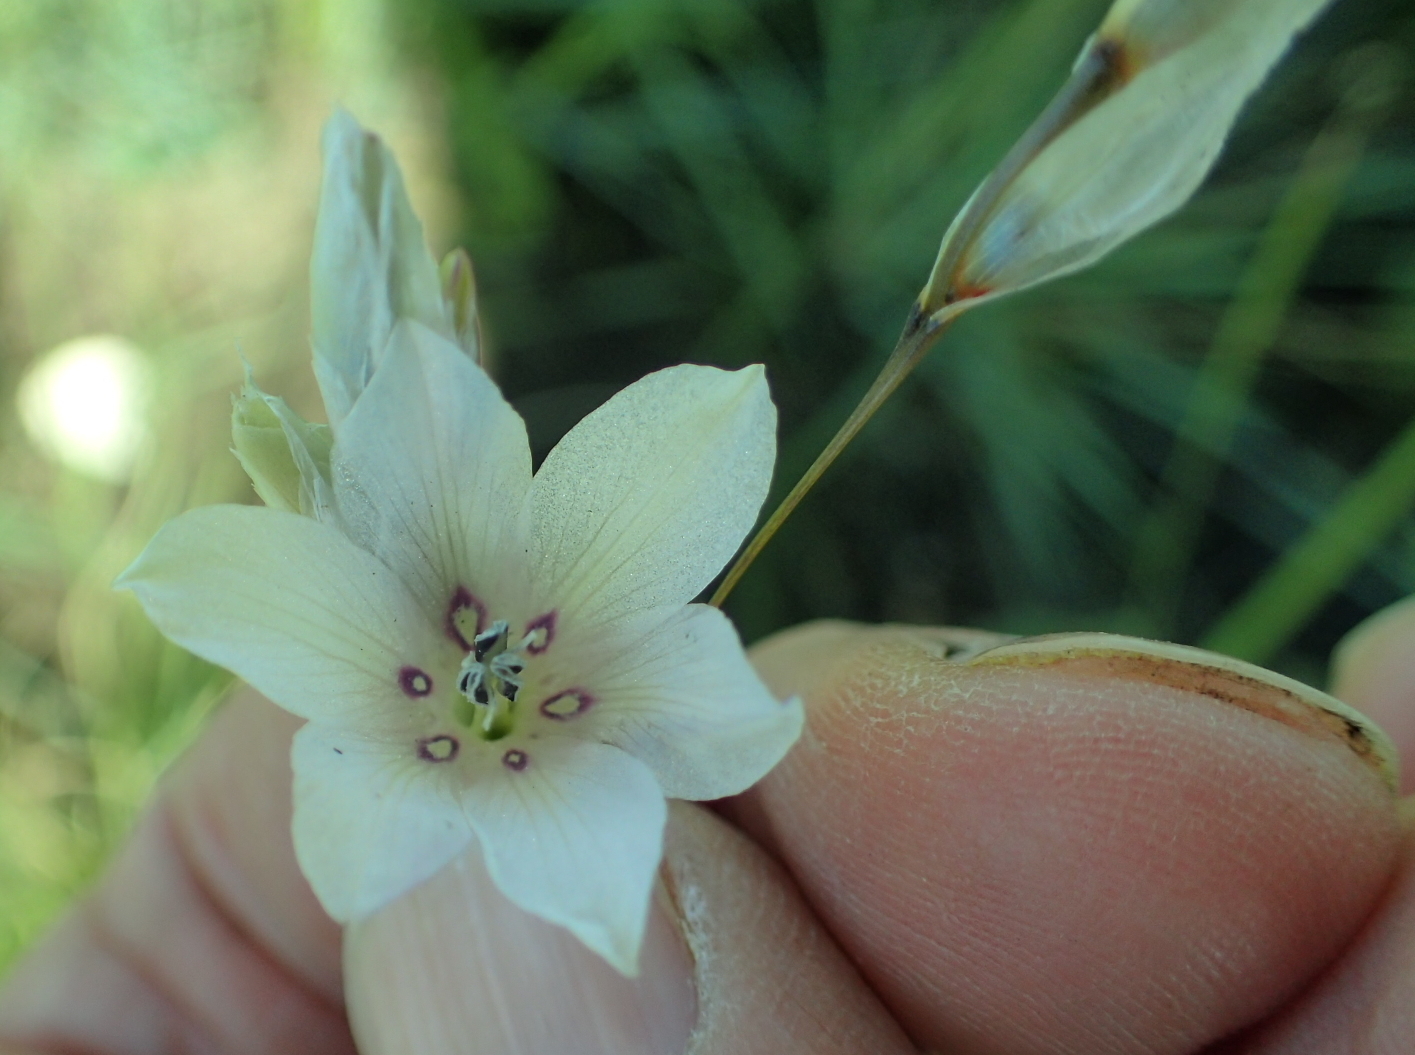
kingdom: Plantae
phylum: Tracheophyta
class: Liliopsida
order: Asparagales
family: Iridaceae
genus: Dierama
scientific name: Dierama pallidum
